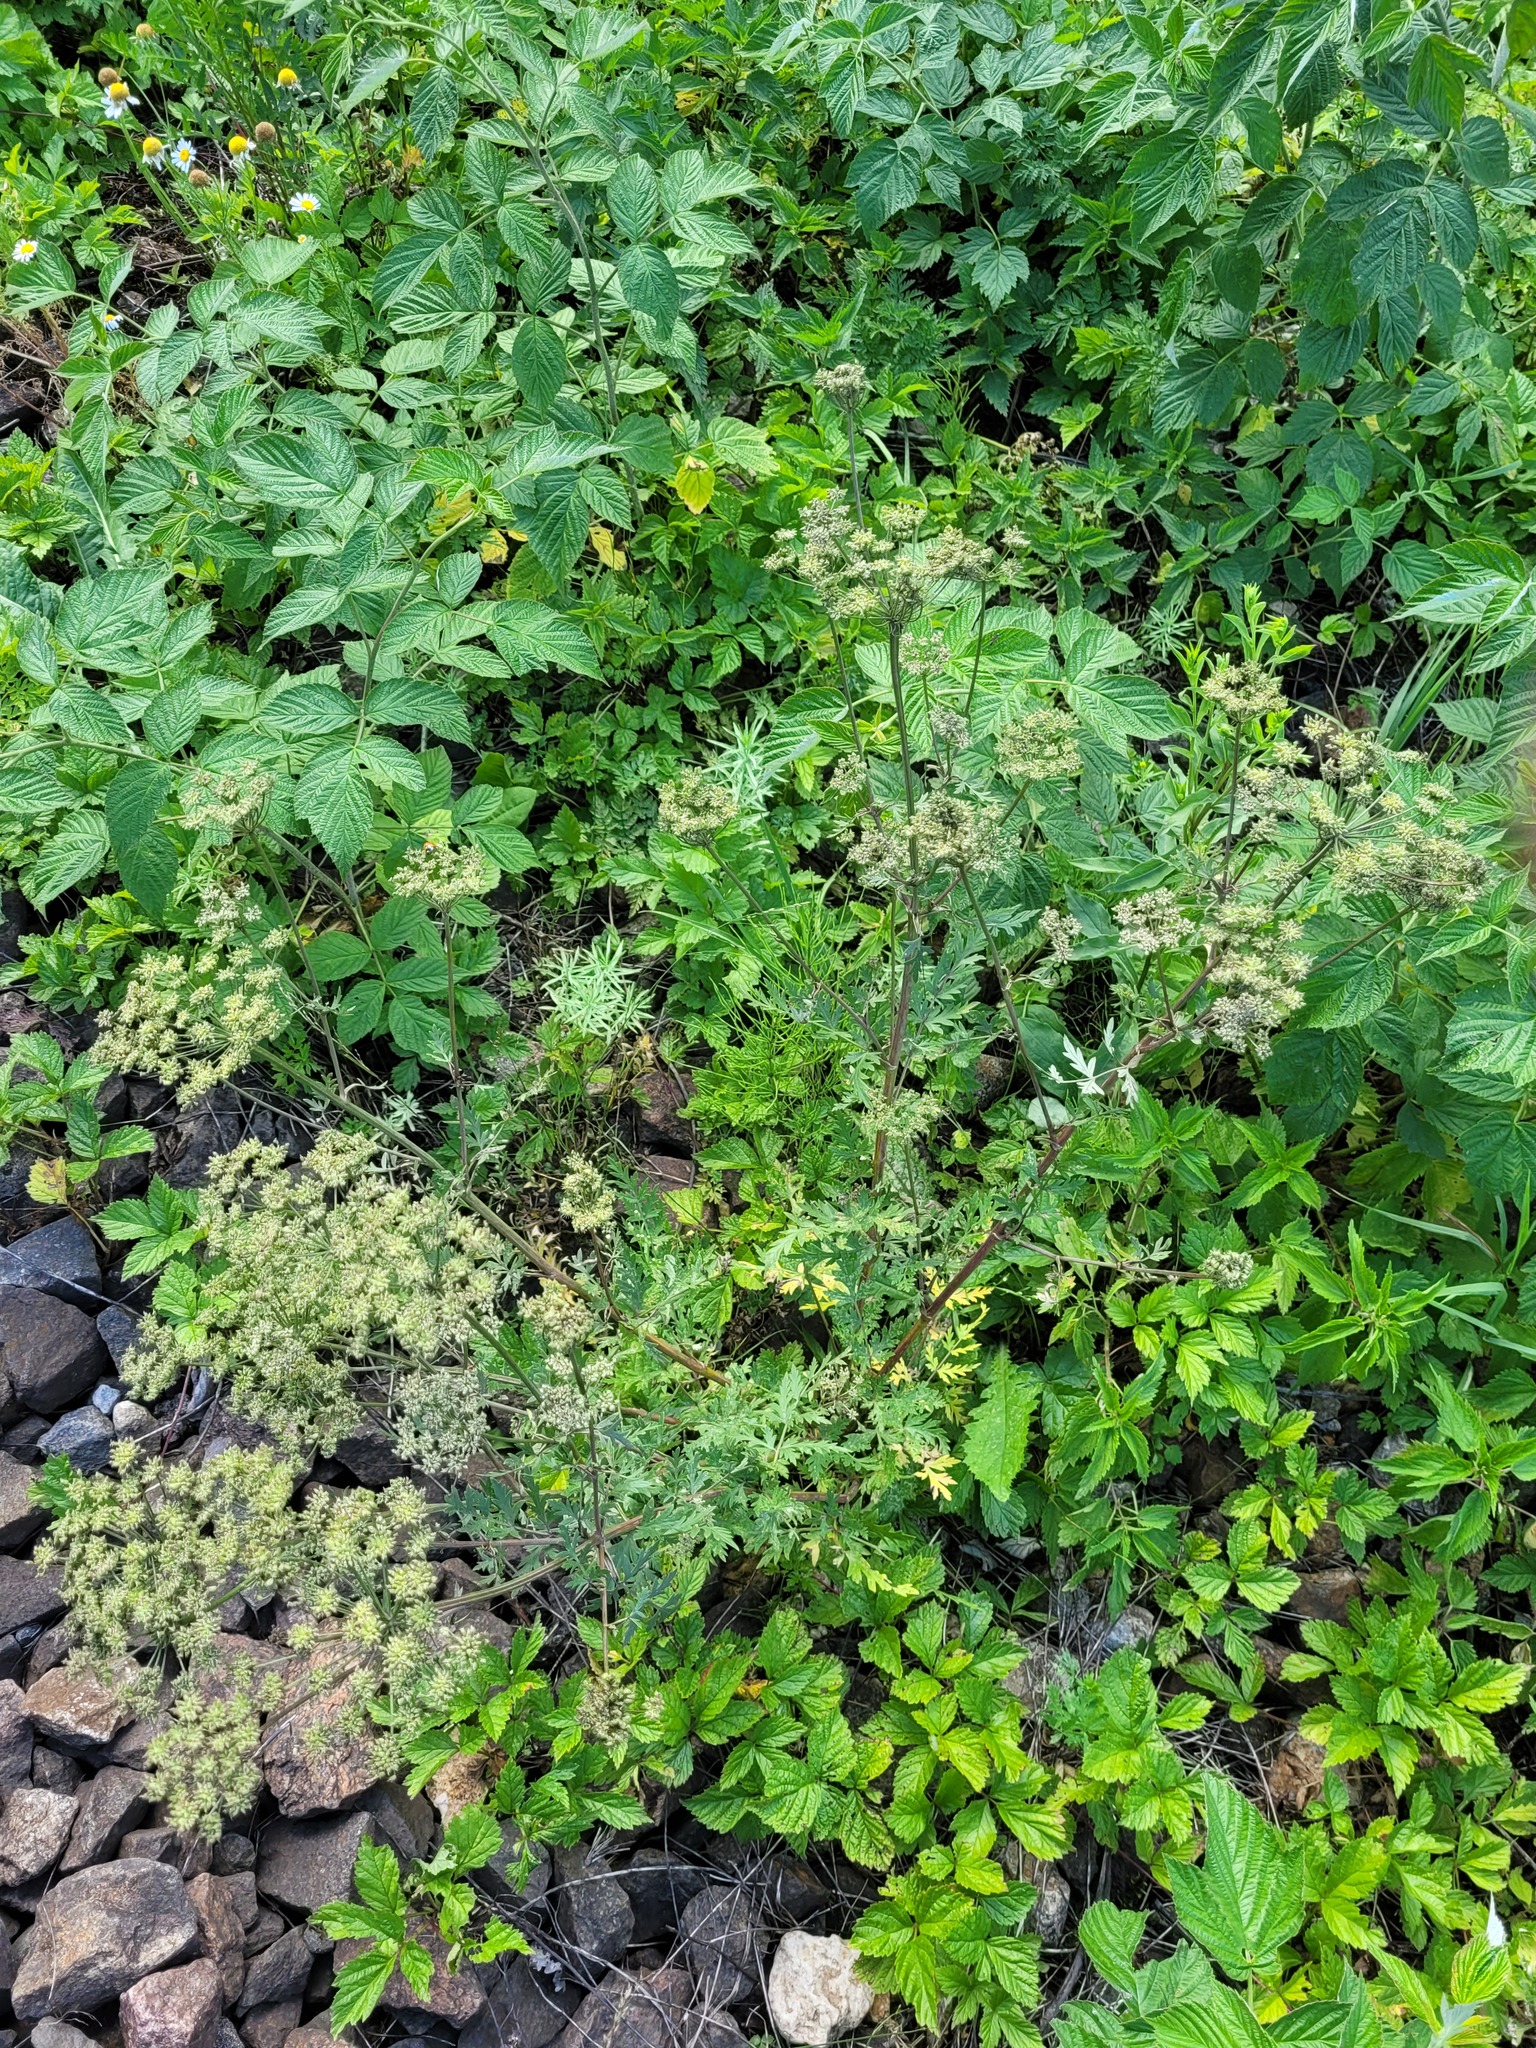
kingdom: Plantae
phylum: Tracheophyta
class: Magnoliopsida
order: Apiales
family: Apiaceae
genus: Seseli
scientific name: Seseli libanotis
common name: Mooncarrot
